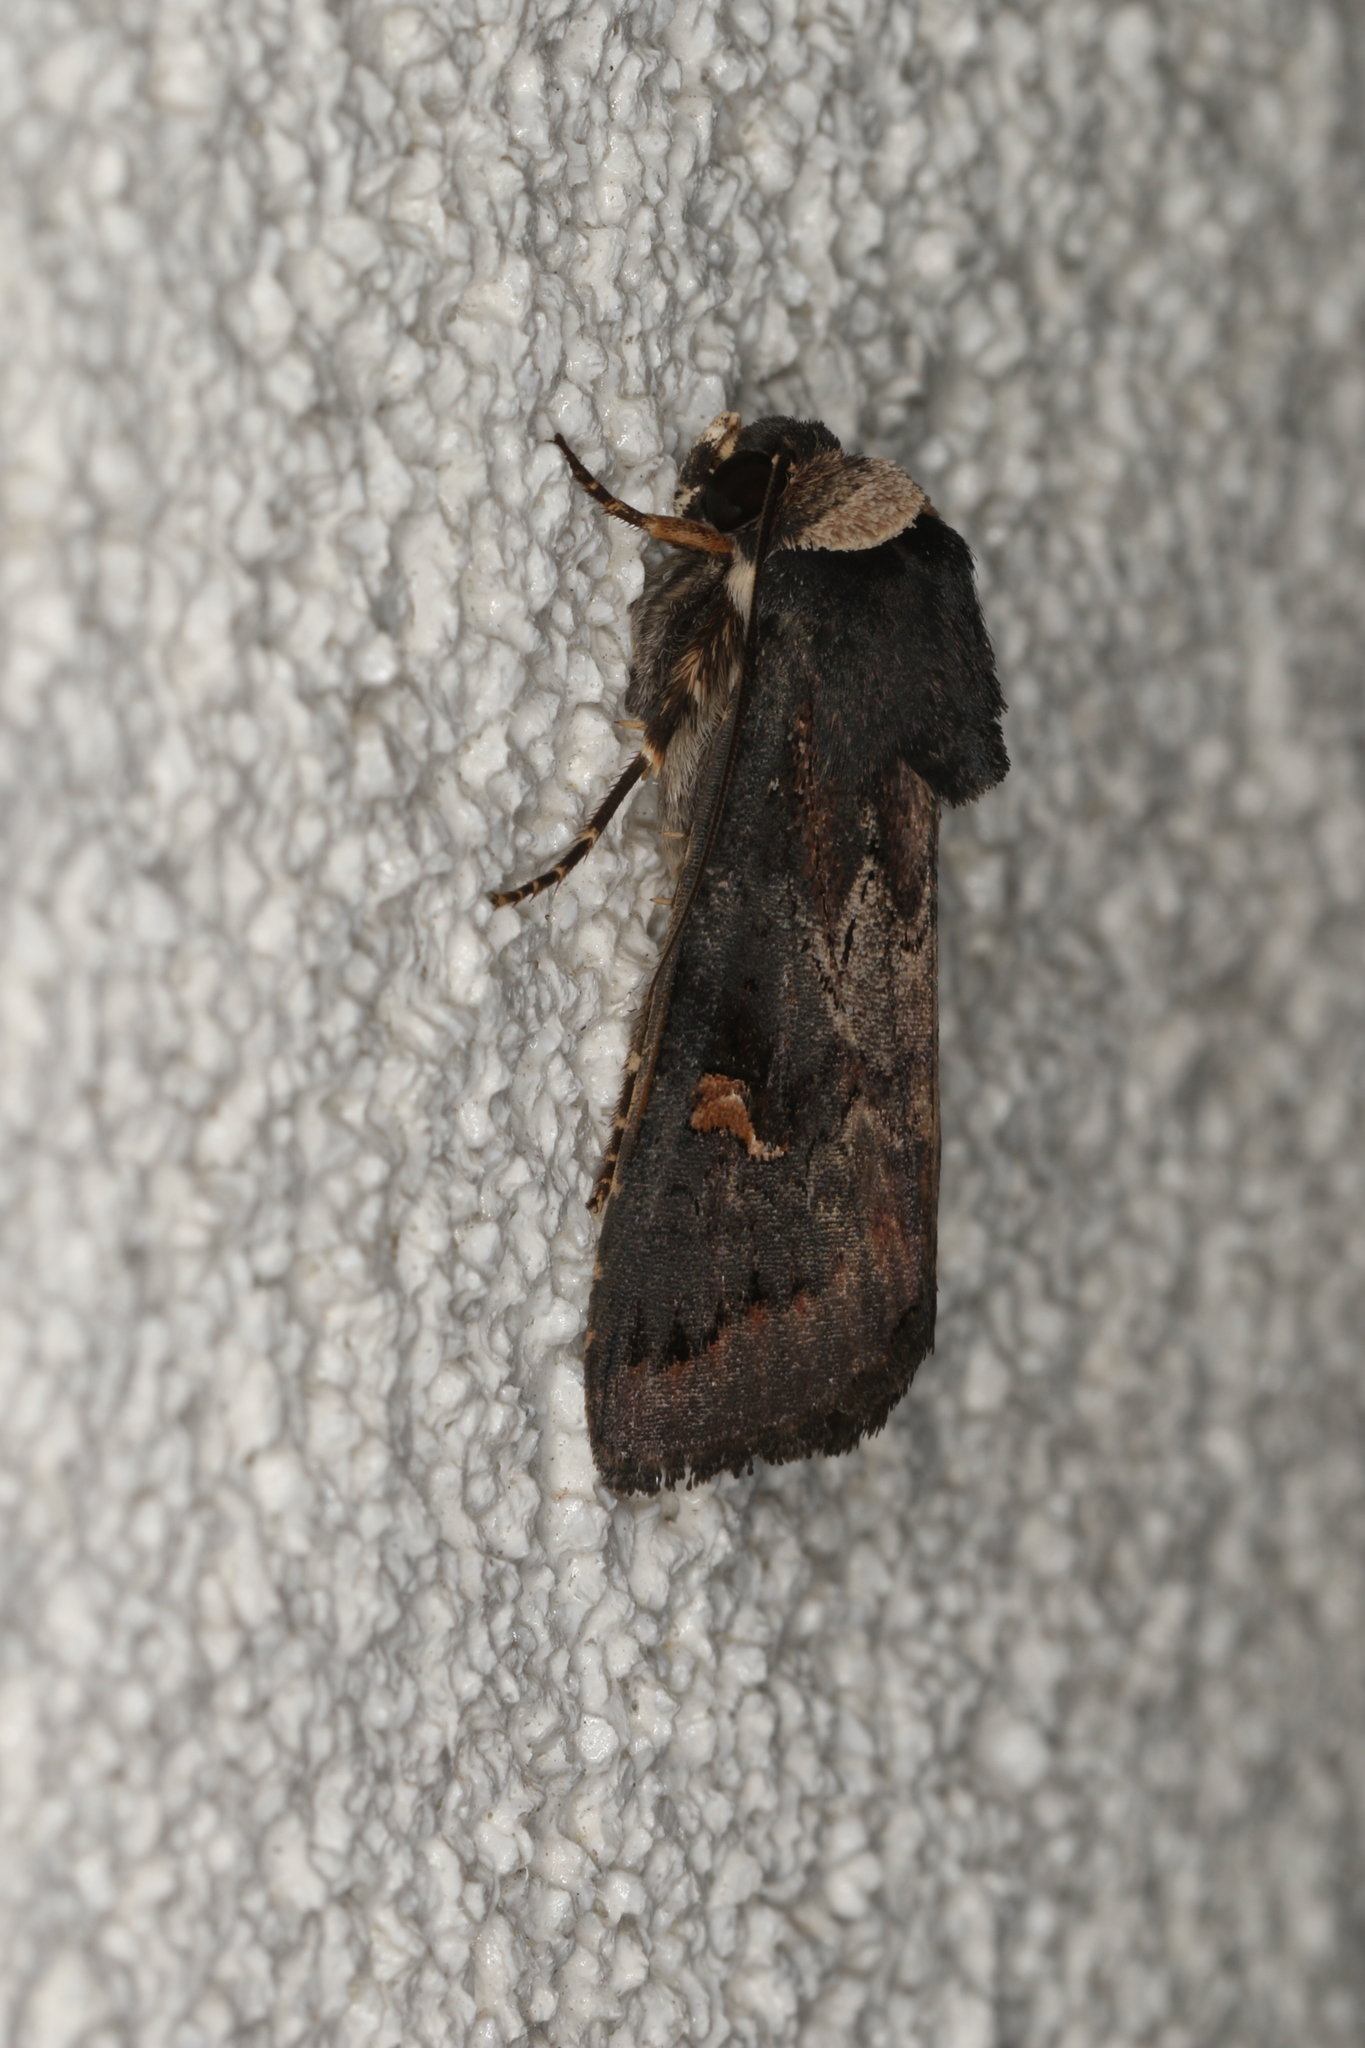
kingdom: Animalia
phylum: Arthropoda
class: Insecta
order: Lepidoptera
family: Noctuidae
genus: Proteuxoa
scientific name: Proteuxoa cinereicollis
